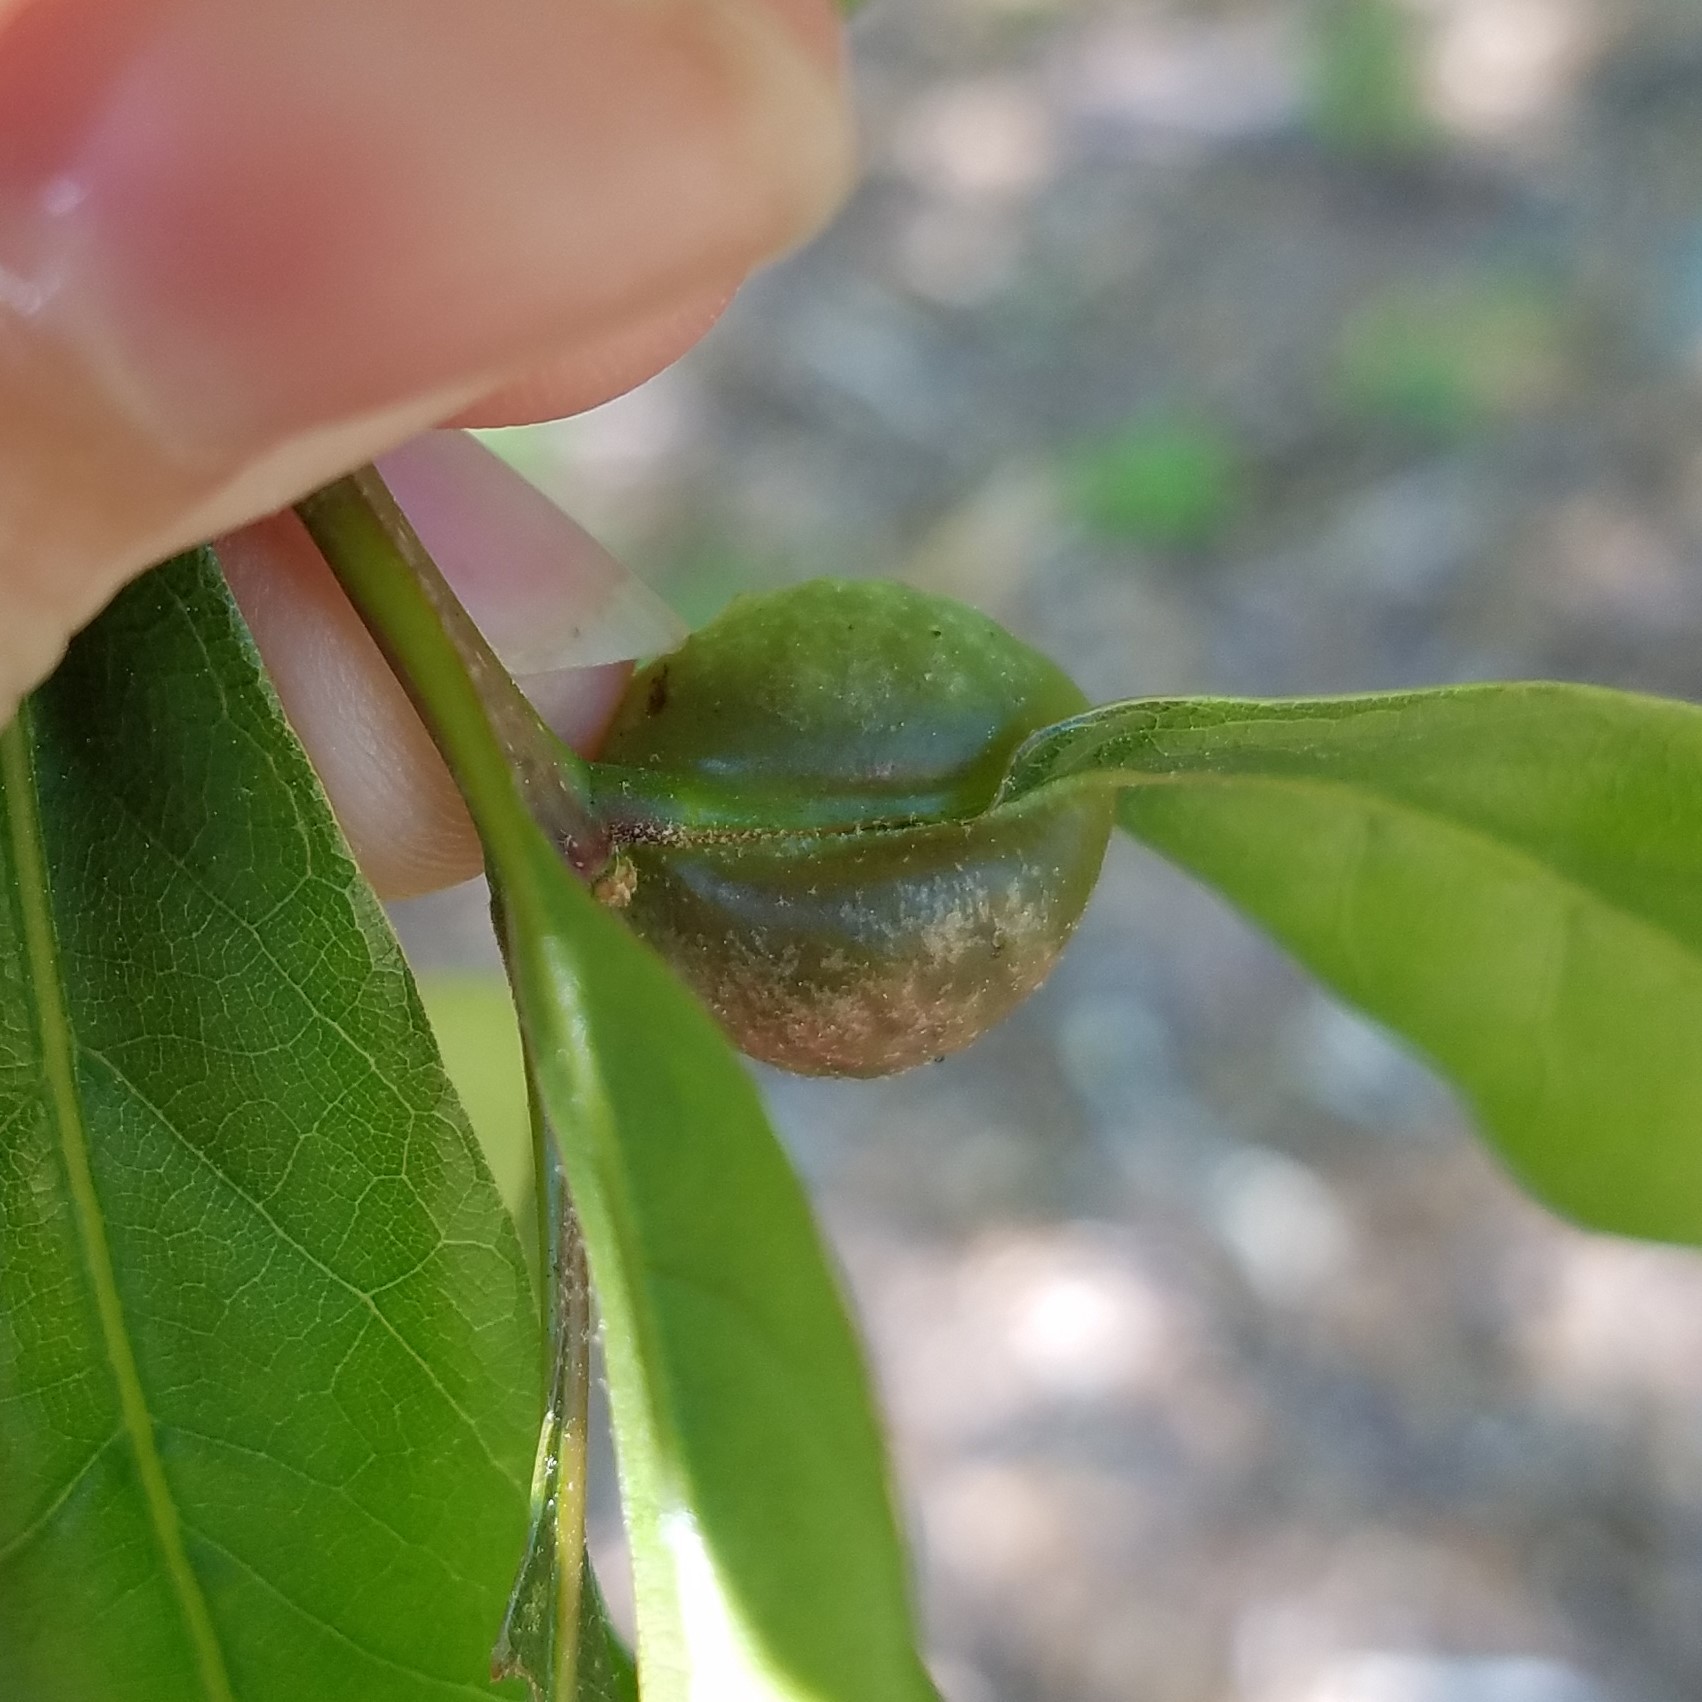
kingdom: Animalia
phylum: Arthropoda
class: Insecta
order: Hymenoptera
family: Cynipidae
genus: Dryocosmus
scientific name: Dryocosmus quercuspalustris
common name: Succulent oak gall wasp
